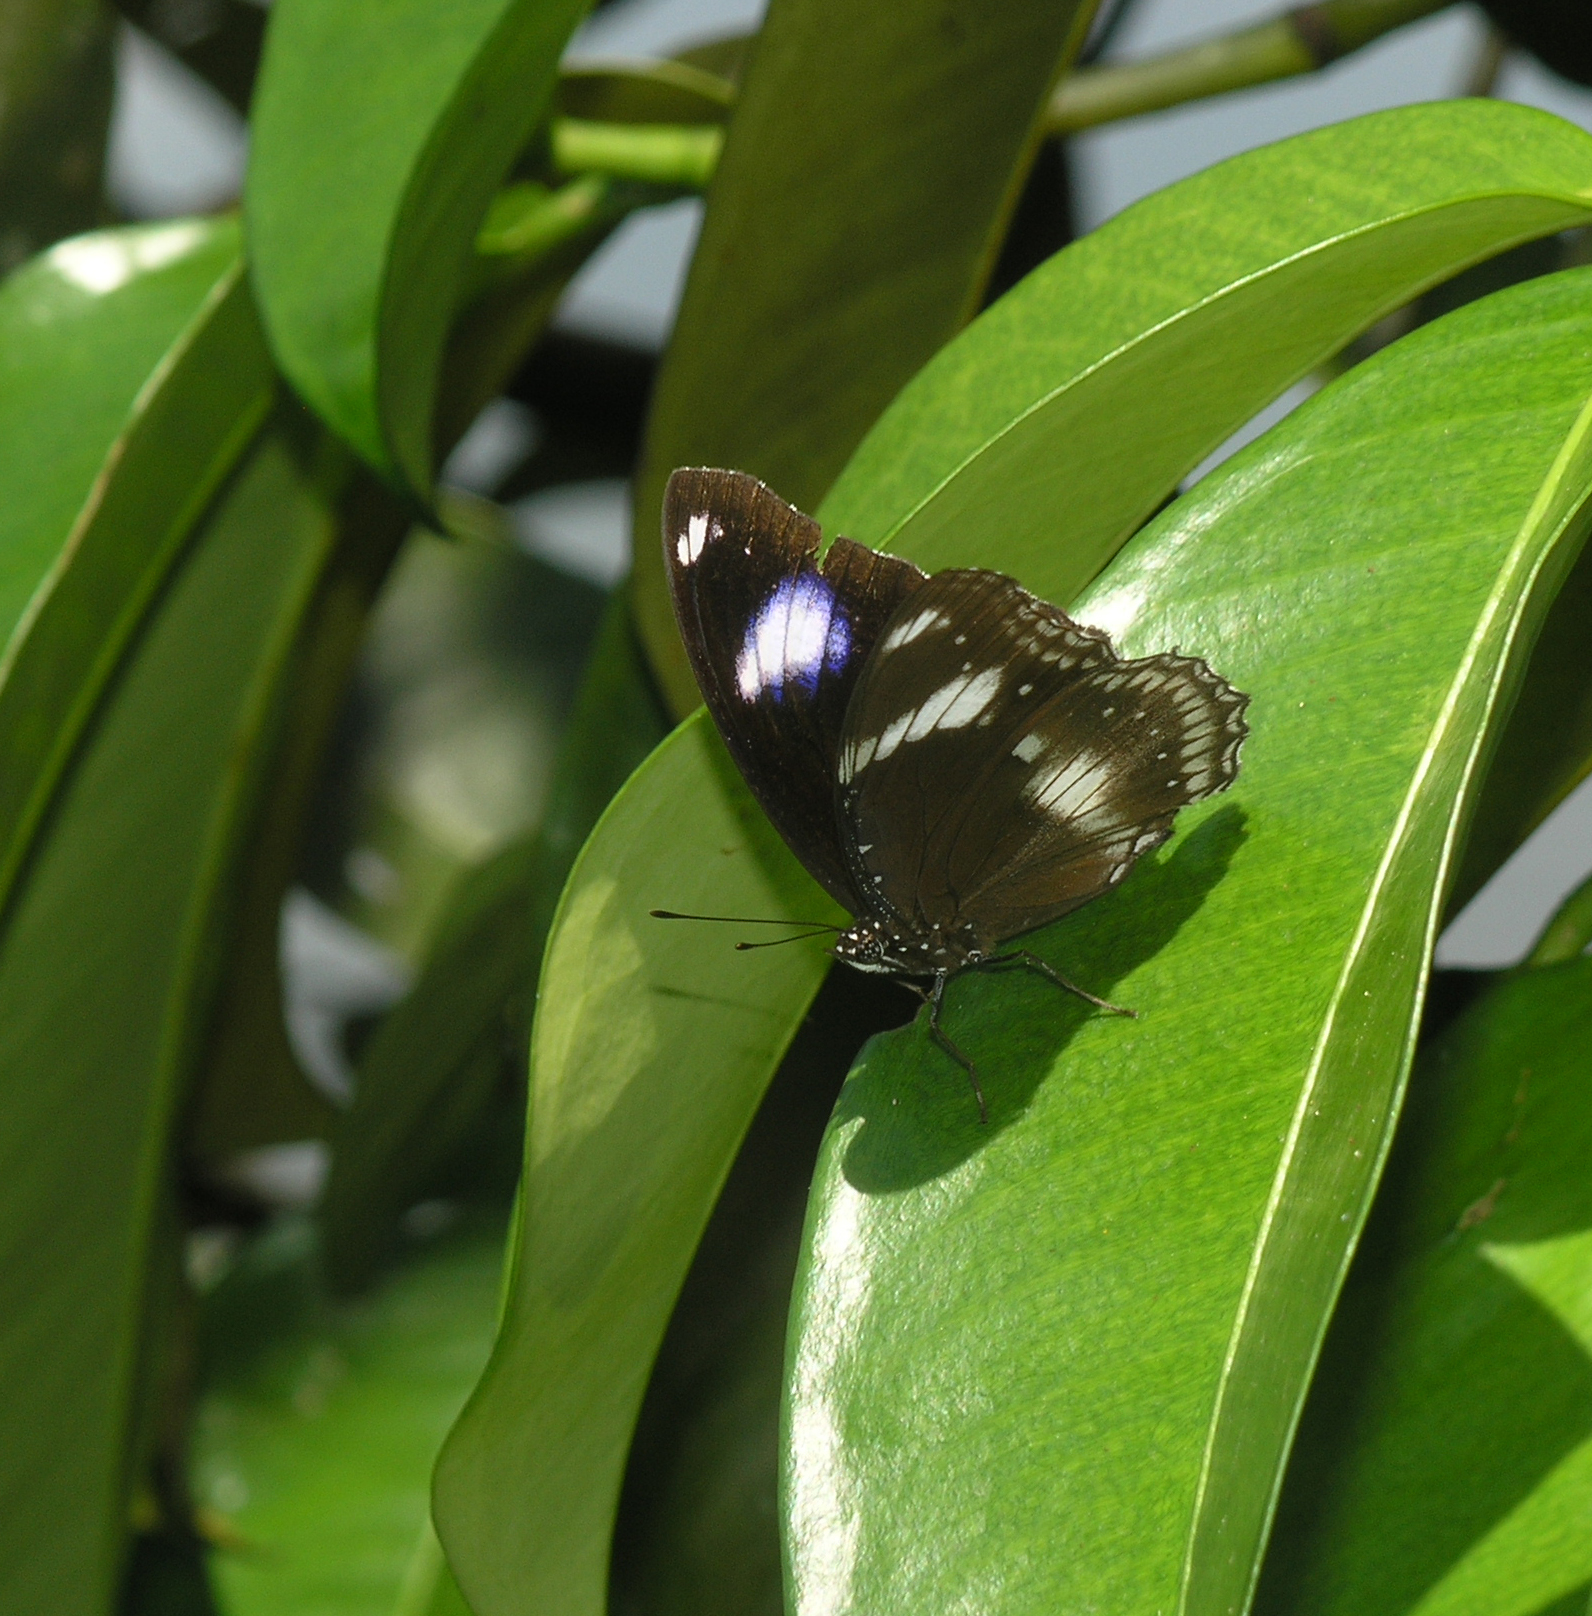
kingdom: Animalia
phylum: Arthropoda
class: Insecta
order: Lepidoptera
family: Nymphalidae
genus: Hypolimnas
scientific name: Hypolimnas bolina
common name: Great eggfly
